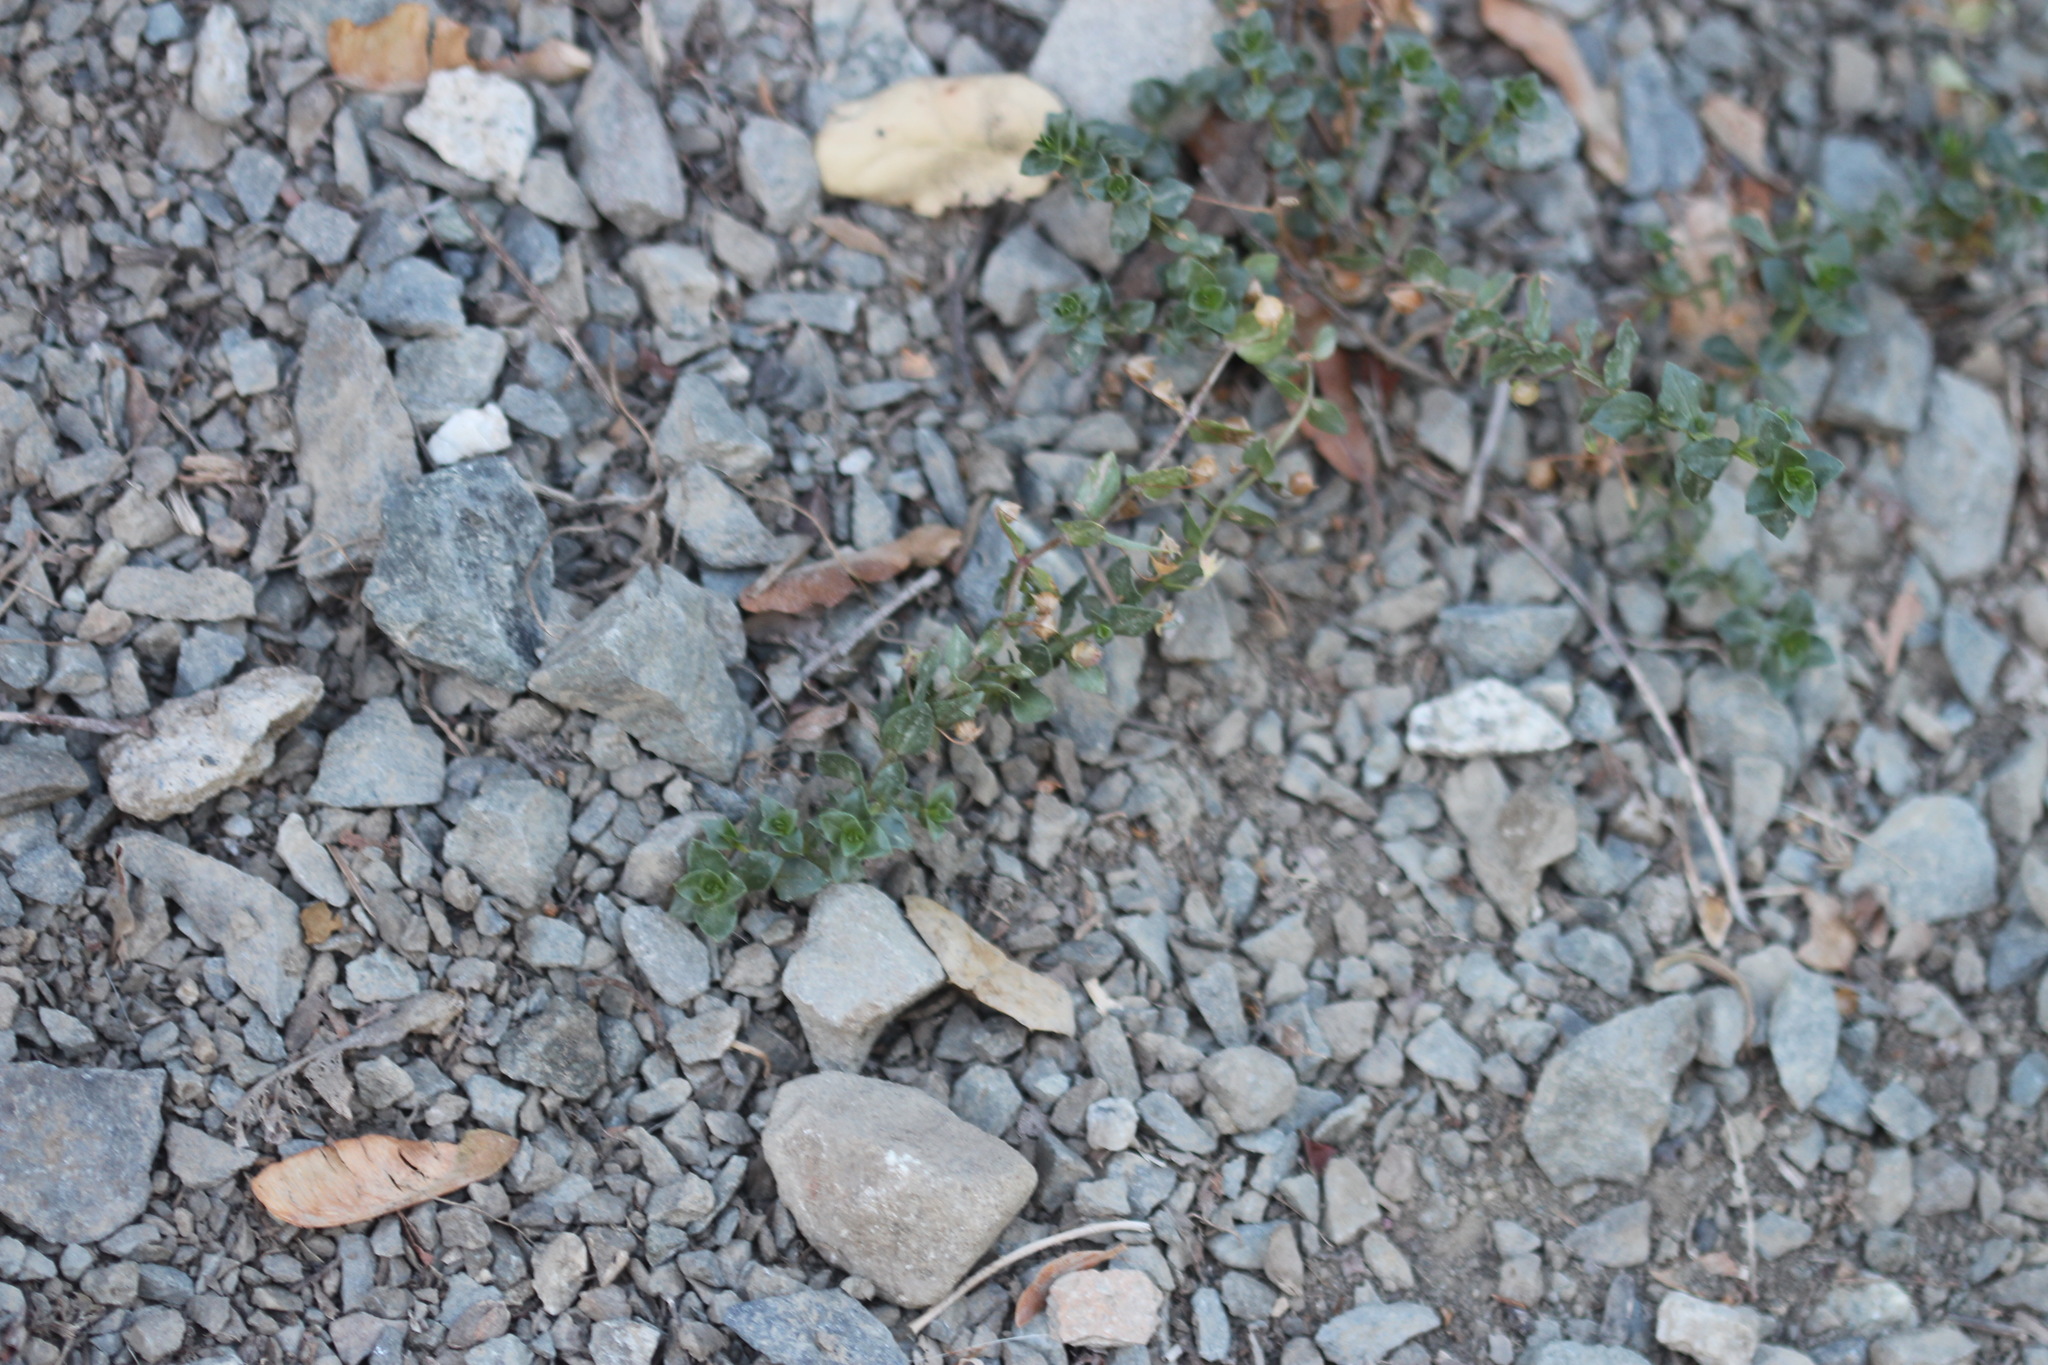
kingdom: Plantae
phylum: Tracheophyta
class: Magnoliopsida
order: Ericales
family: Primulaceae
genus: Lysimachia
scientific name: Lysimachia arvensis
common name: Scarlet pimpernel
